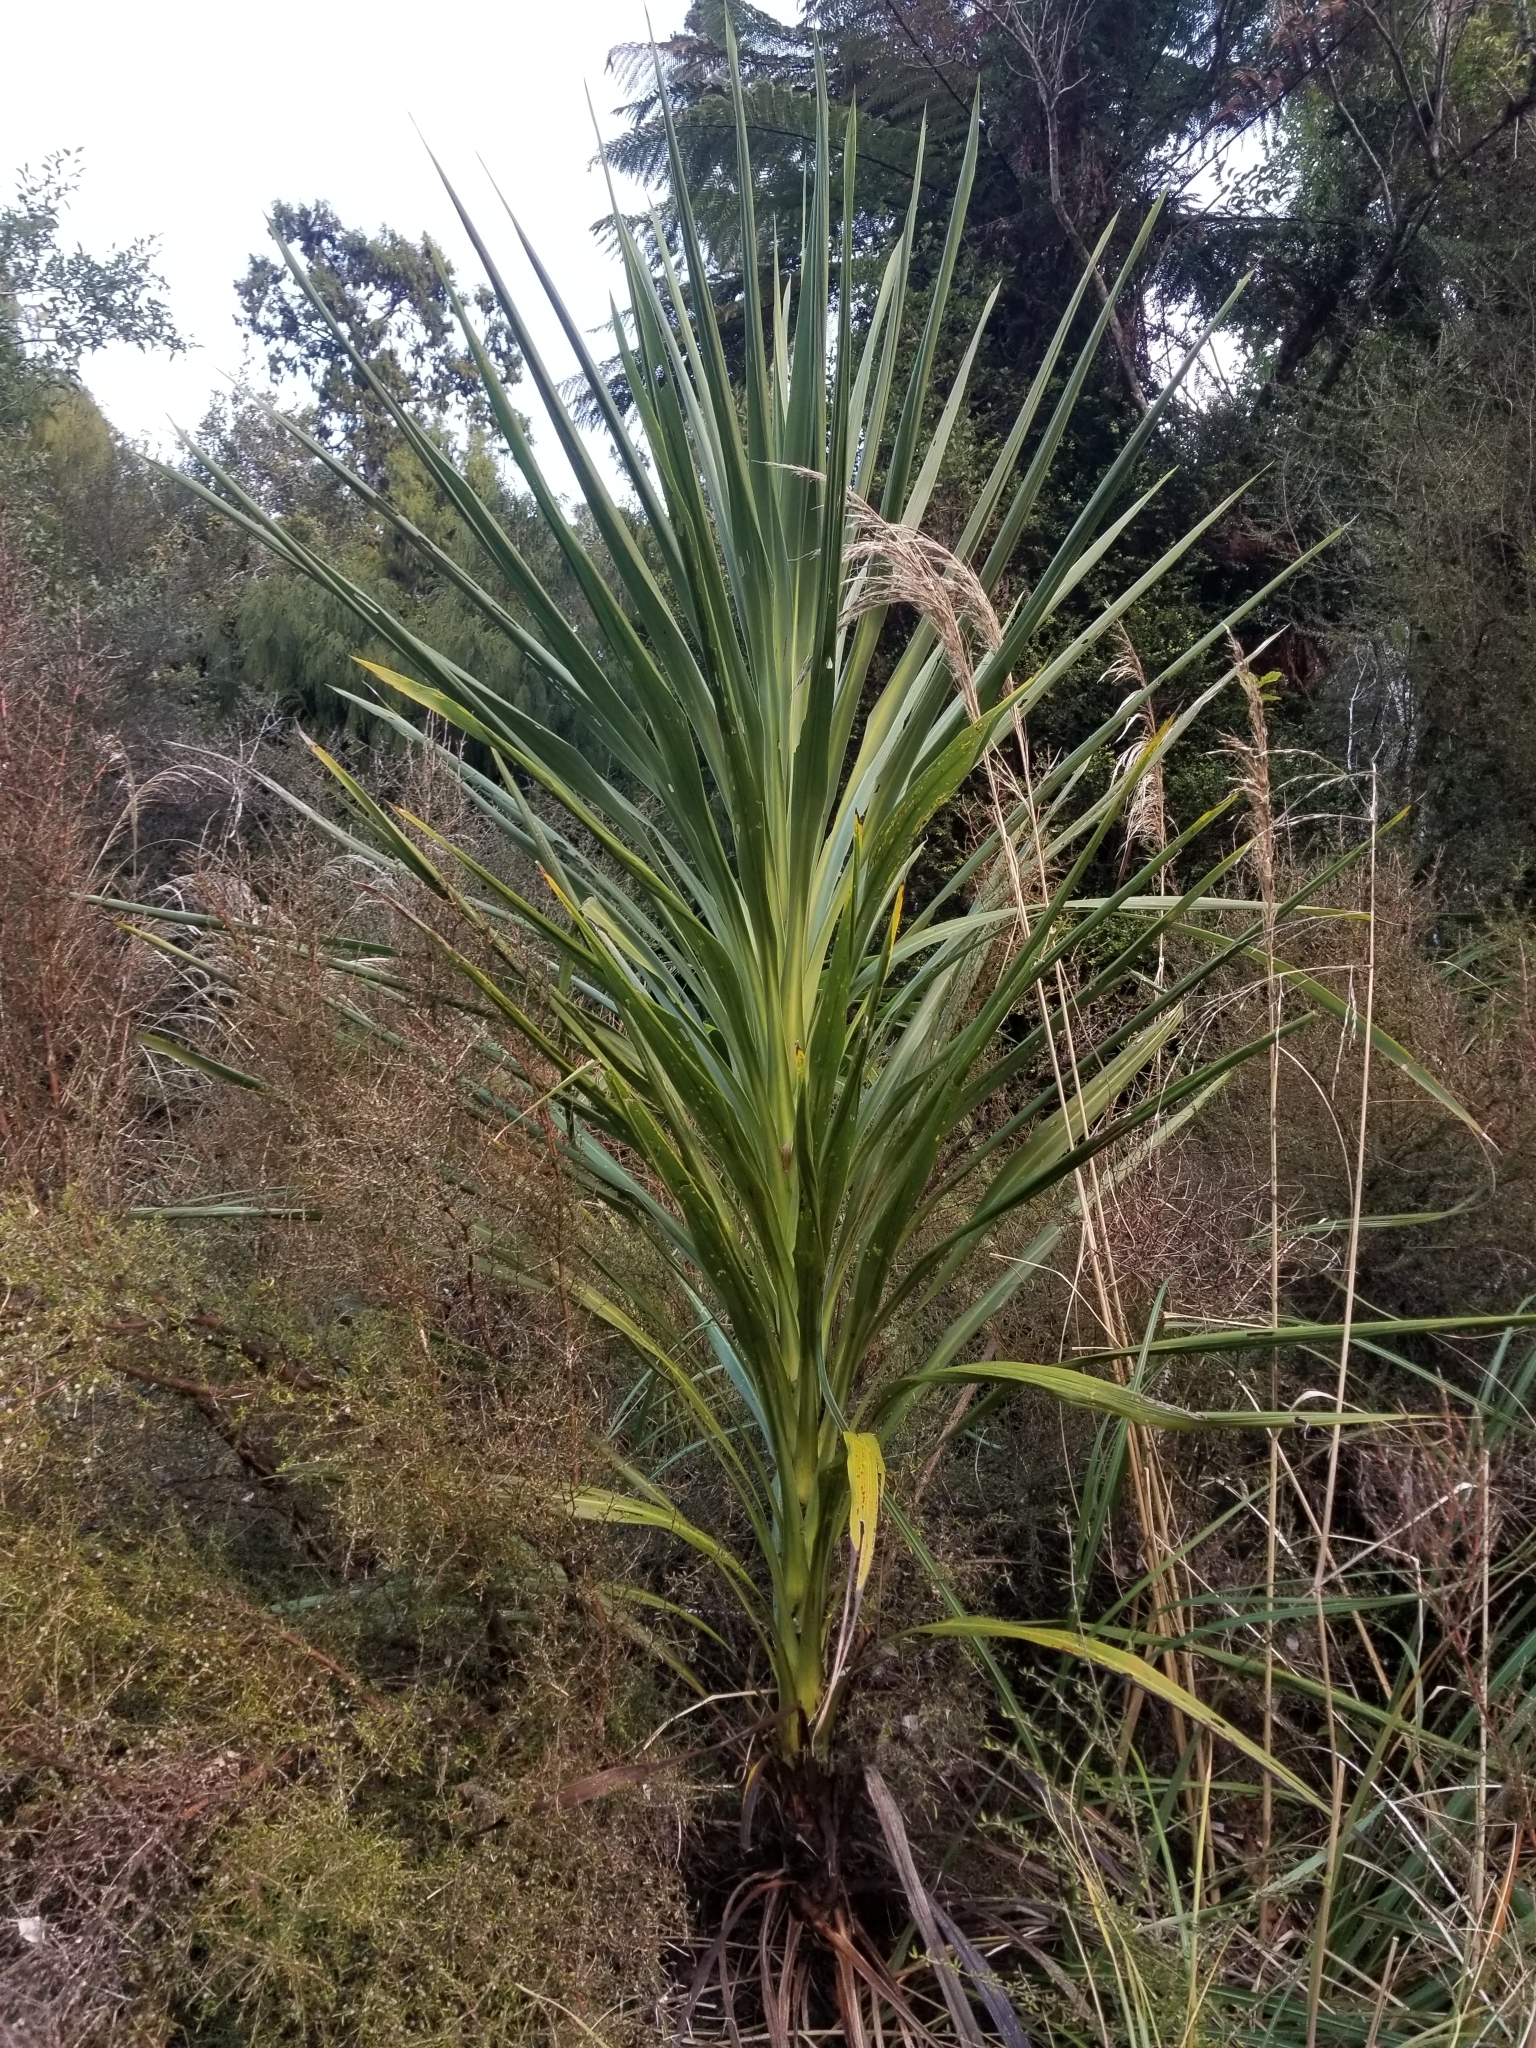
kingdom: Plantae
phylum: Tracheophyta
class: Liliopsida
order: Asparagales
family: Asparagaceae
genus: Cordyline
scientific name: Cordyline australis
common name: Cabbage-palm
